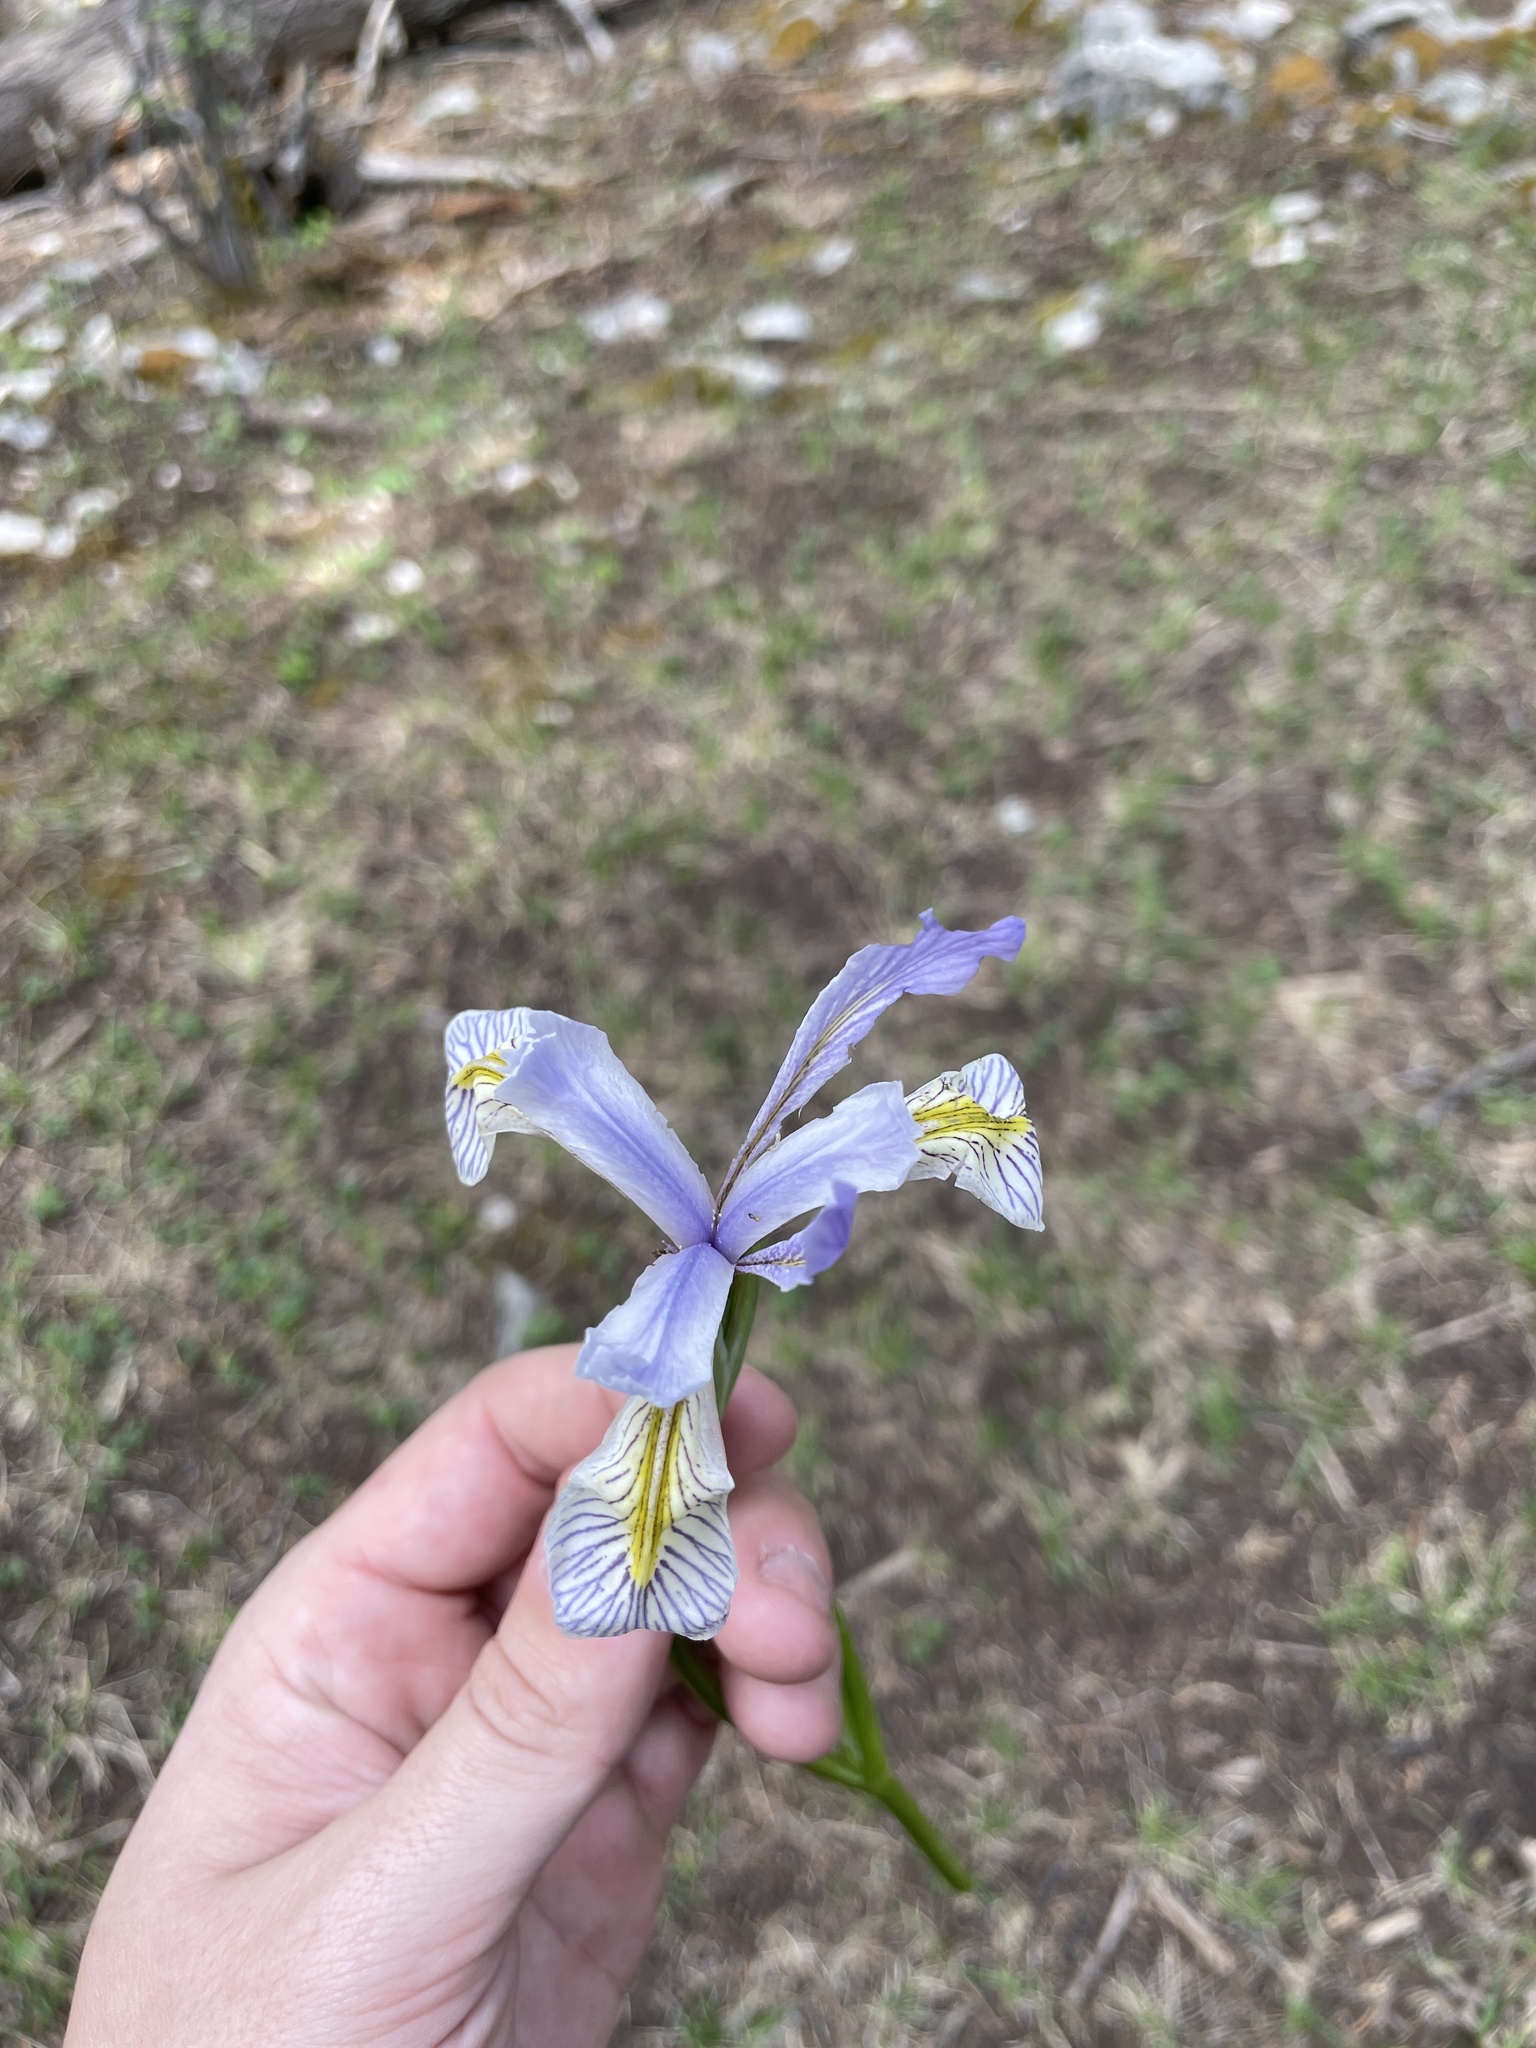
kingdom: Plantae
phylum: Tracheophyta
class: Liliopsida
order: Asparagales
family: Iridaceae
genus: Iris
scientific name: Iris missouriensis
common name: Rocky mountain iris
